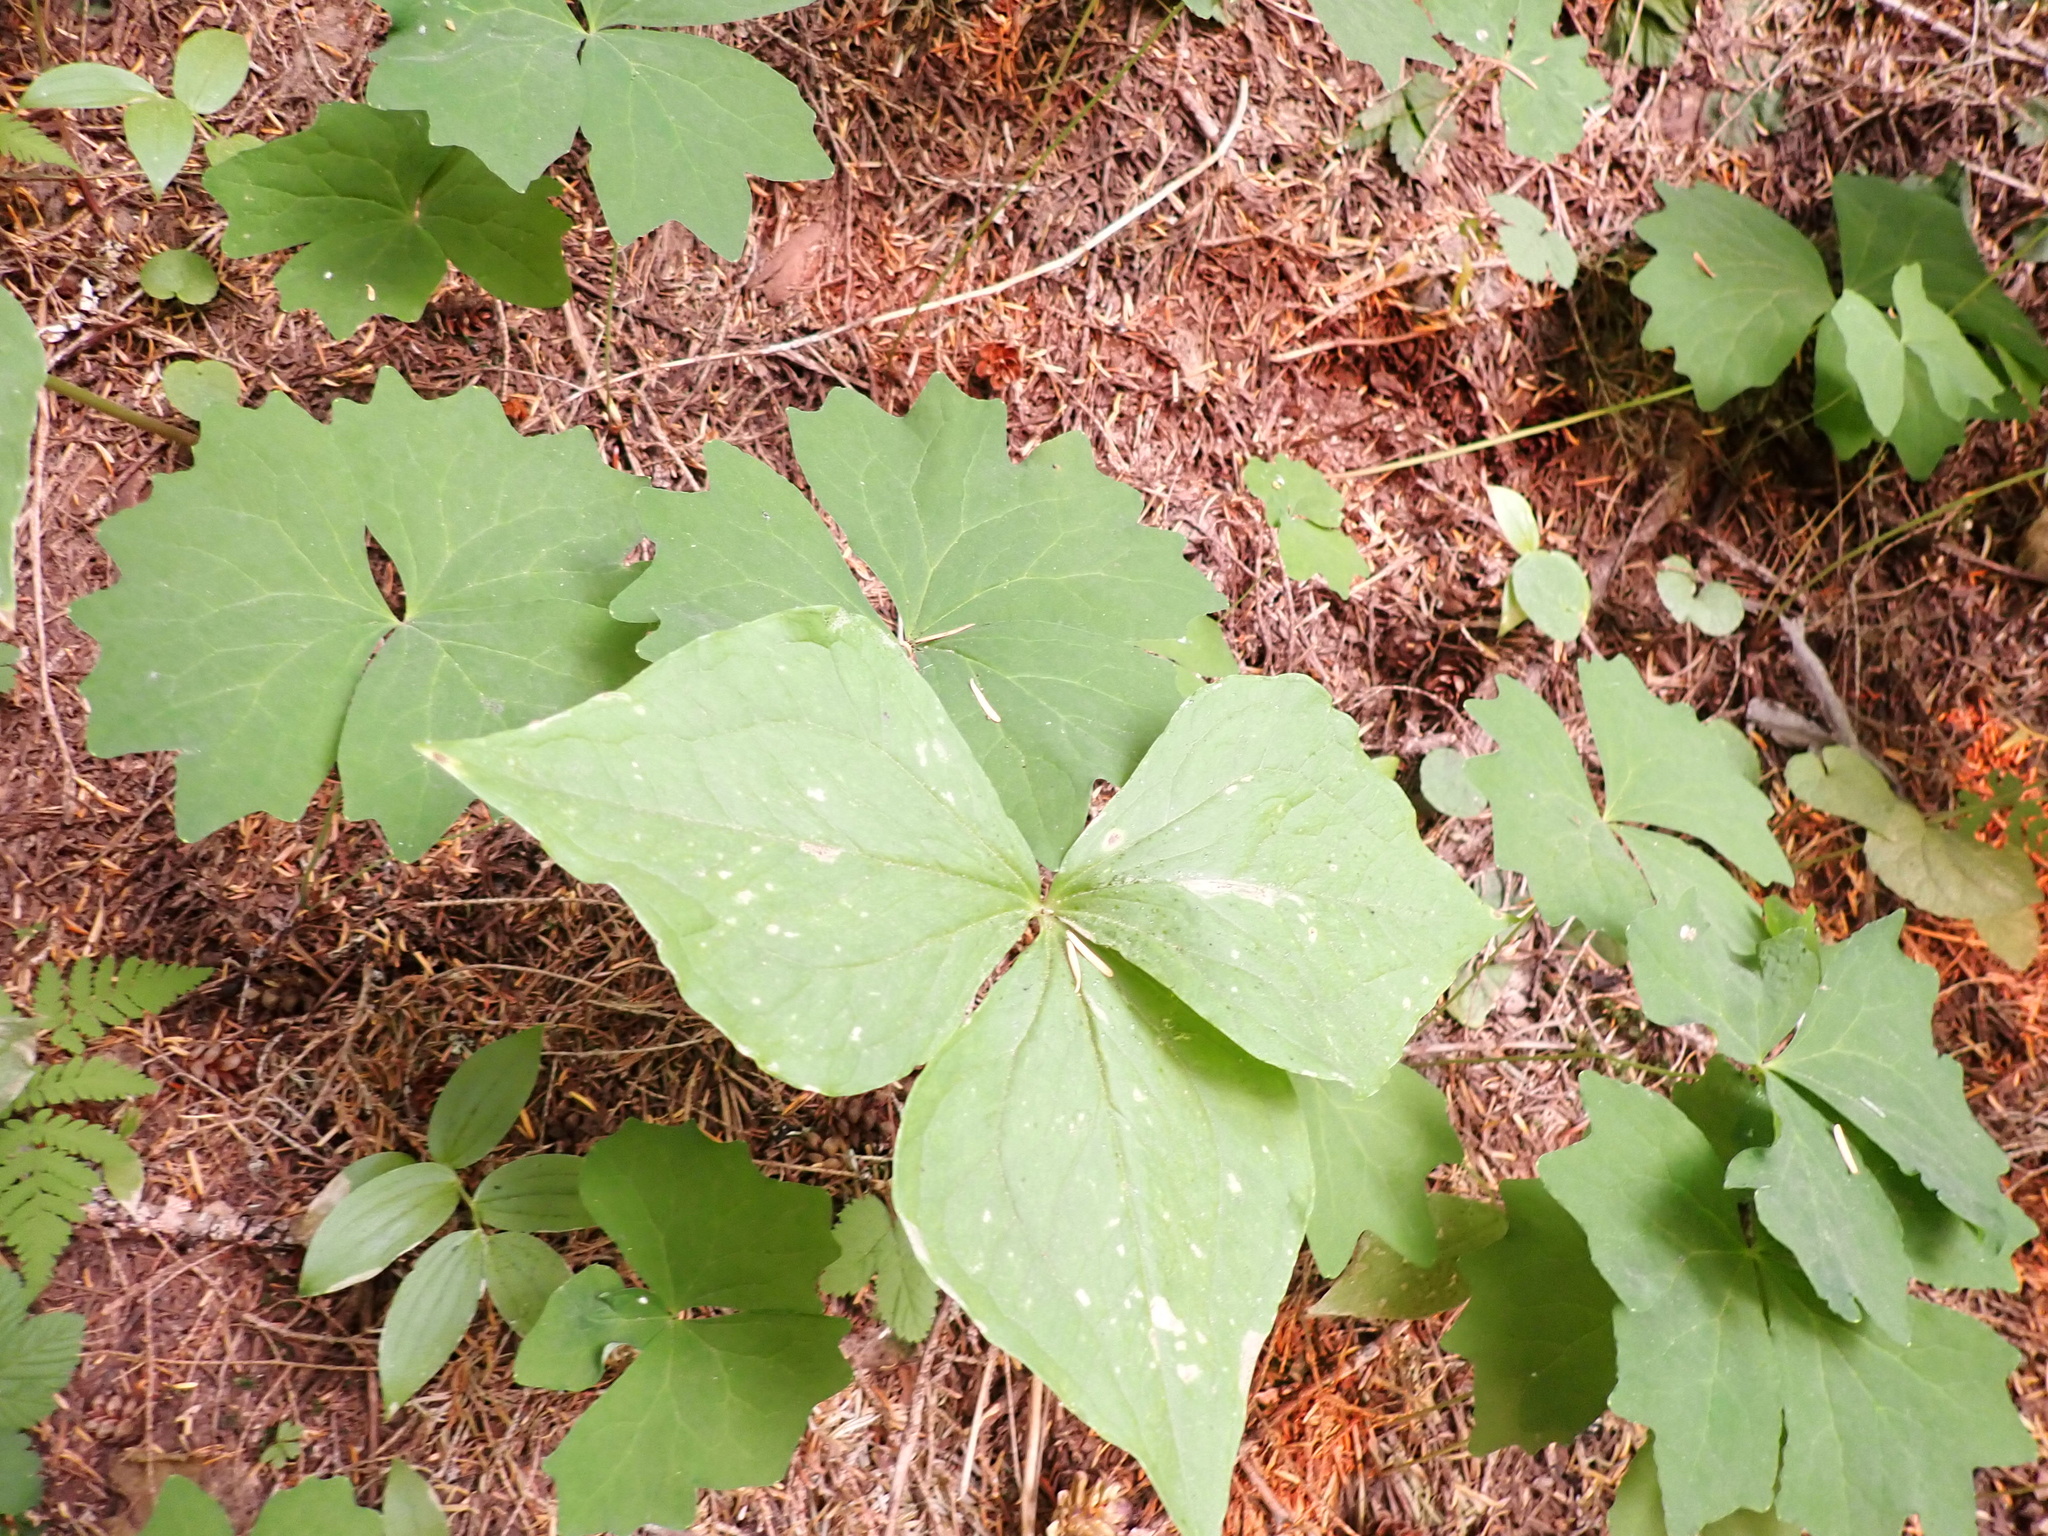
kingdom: Plantae
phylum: Tracheophyta
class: Liliopsida
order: Liliales
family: Melanthiaceae
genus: Trillium
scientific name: Trillium ovatum
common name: Pacific trillium
